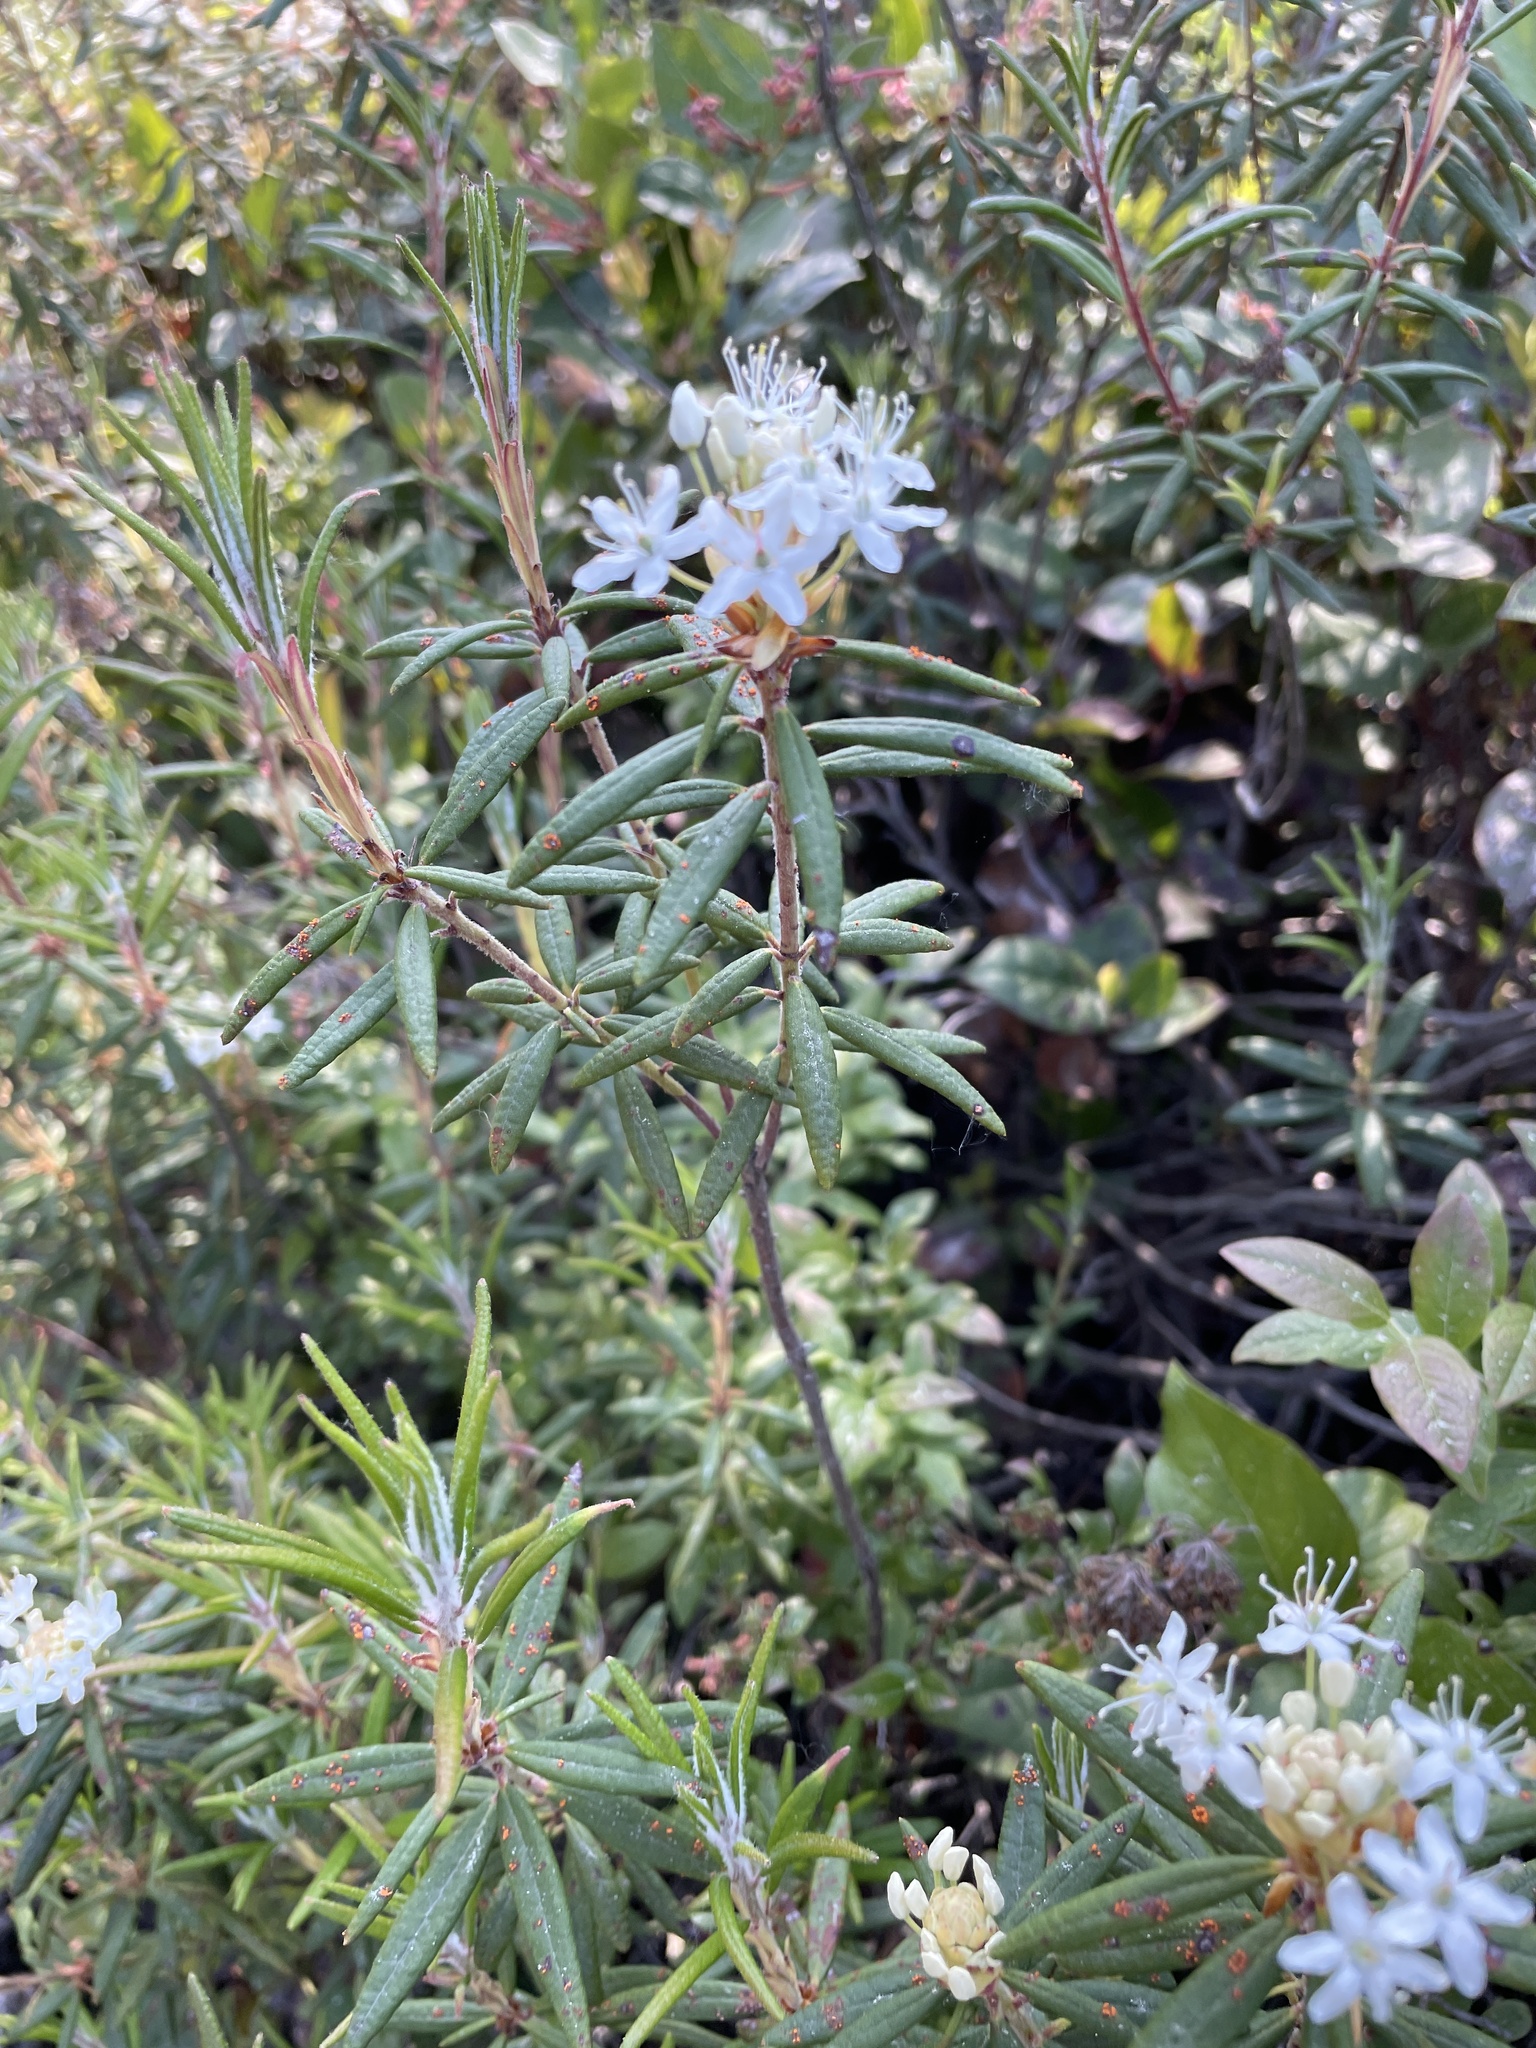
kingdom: Plantae
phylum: Tracheophyta
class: Magnoliopsida
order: Ericales
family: Ericaceae
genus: Rhododendron
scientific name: Rhododendron groenlandicum
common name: Bog labrador tea
